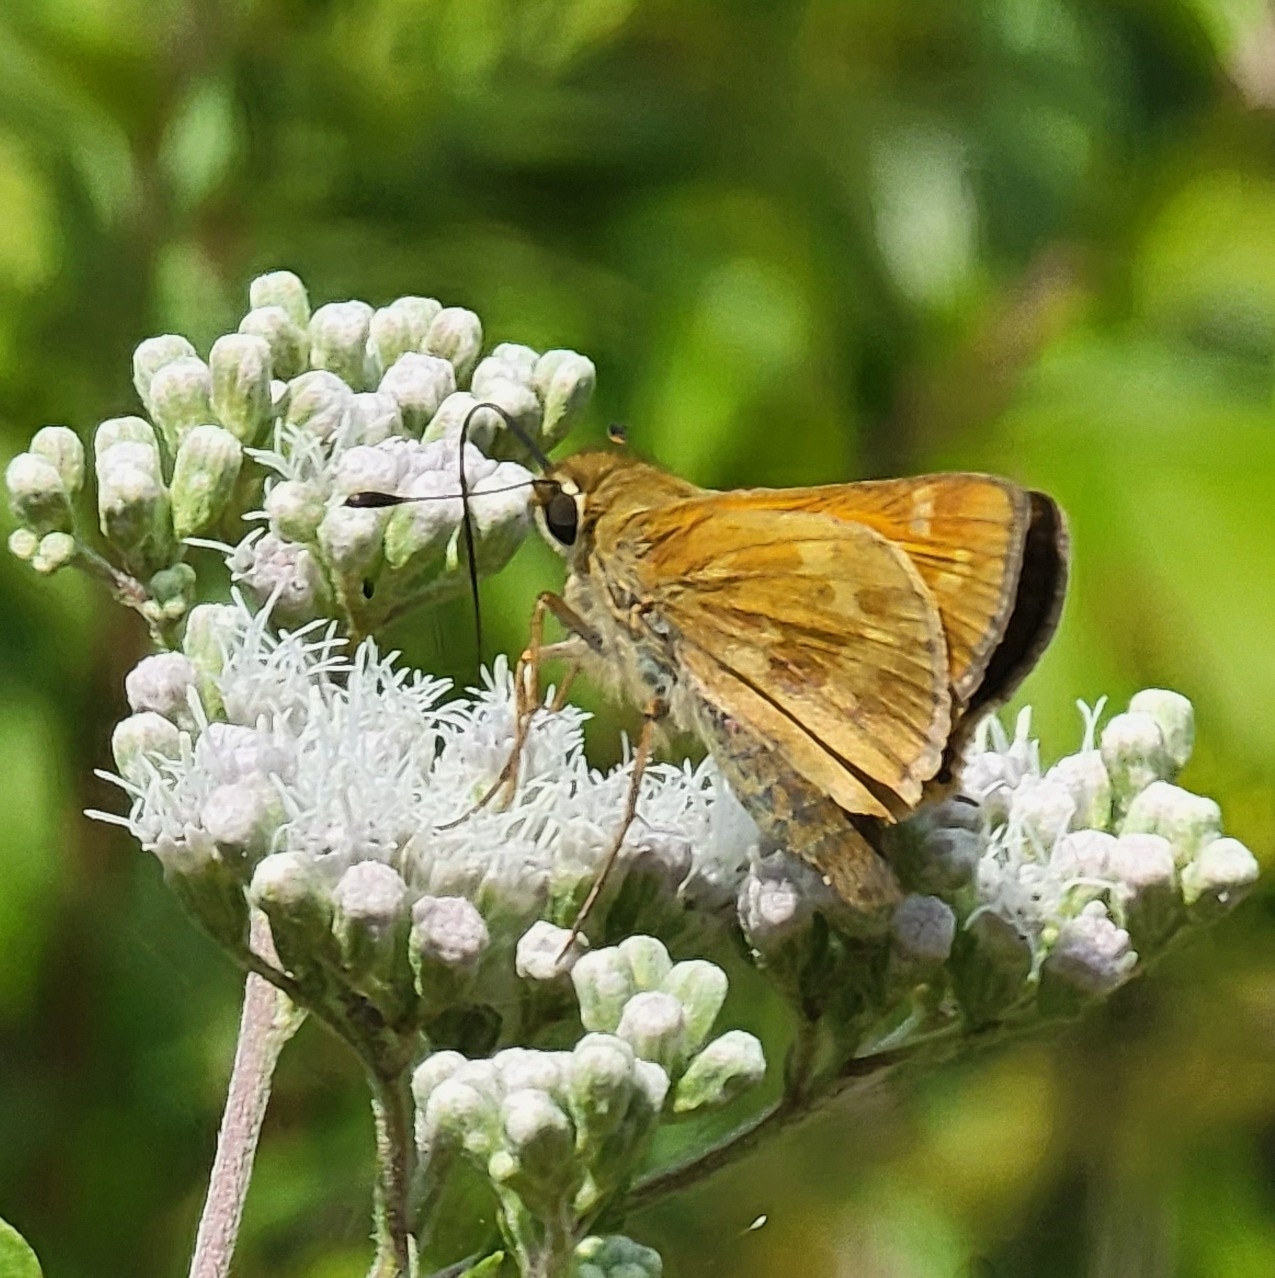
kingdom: Animalia
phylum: Arthropoda
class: Insecta
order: Lepidoptera
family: Hesperiidae
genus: Atalopedes
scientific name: Atalopedes
